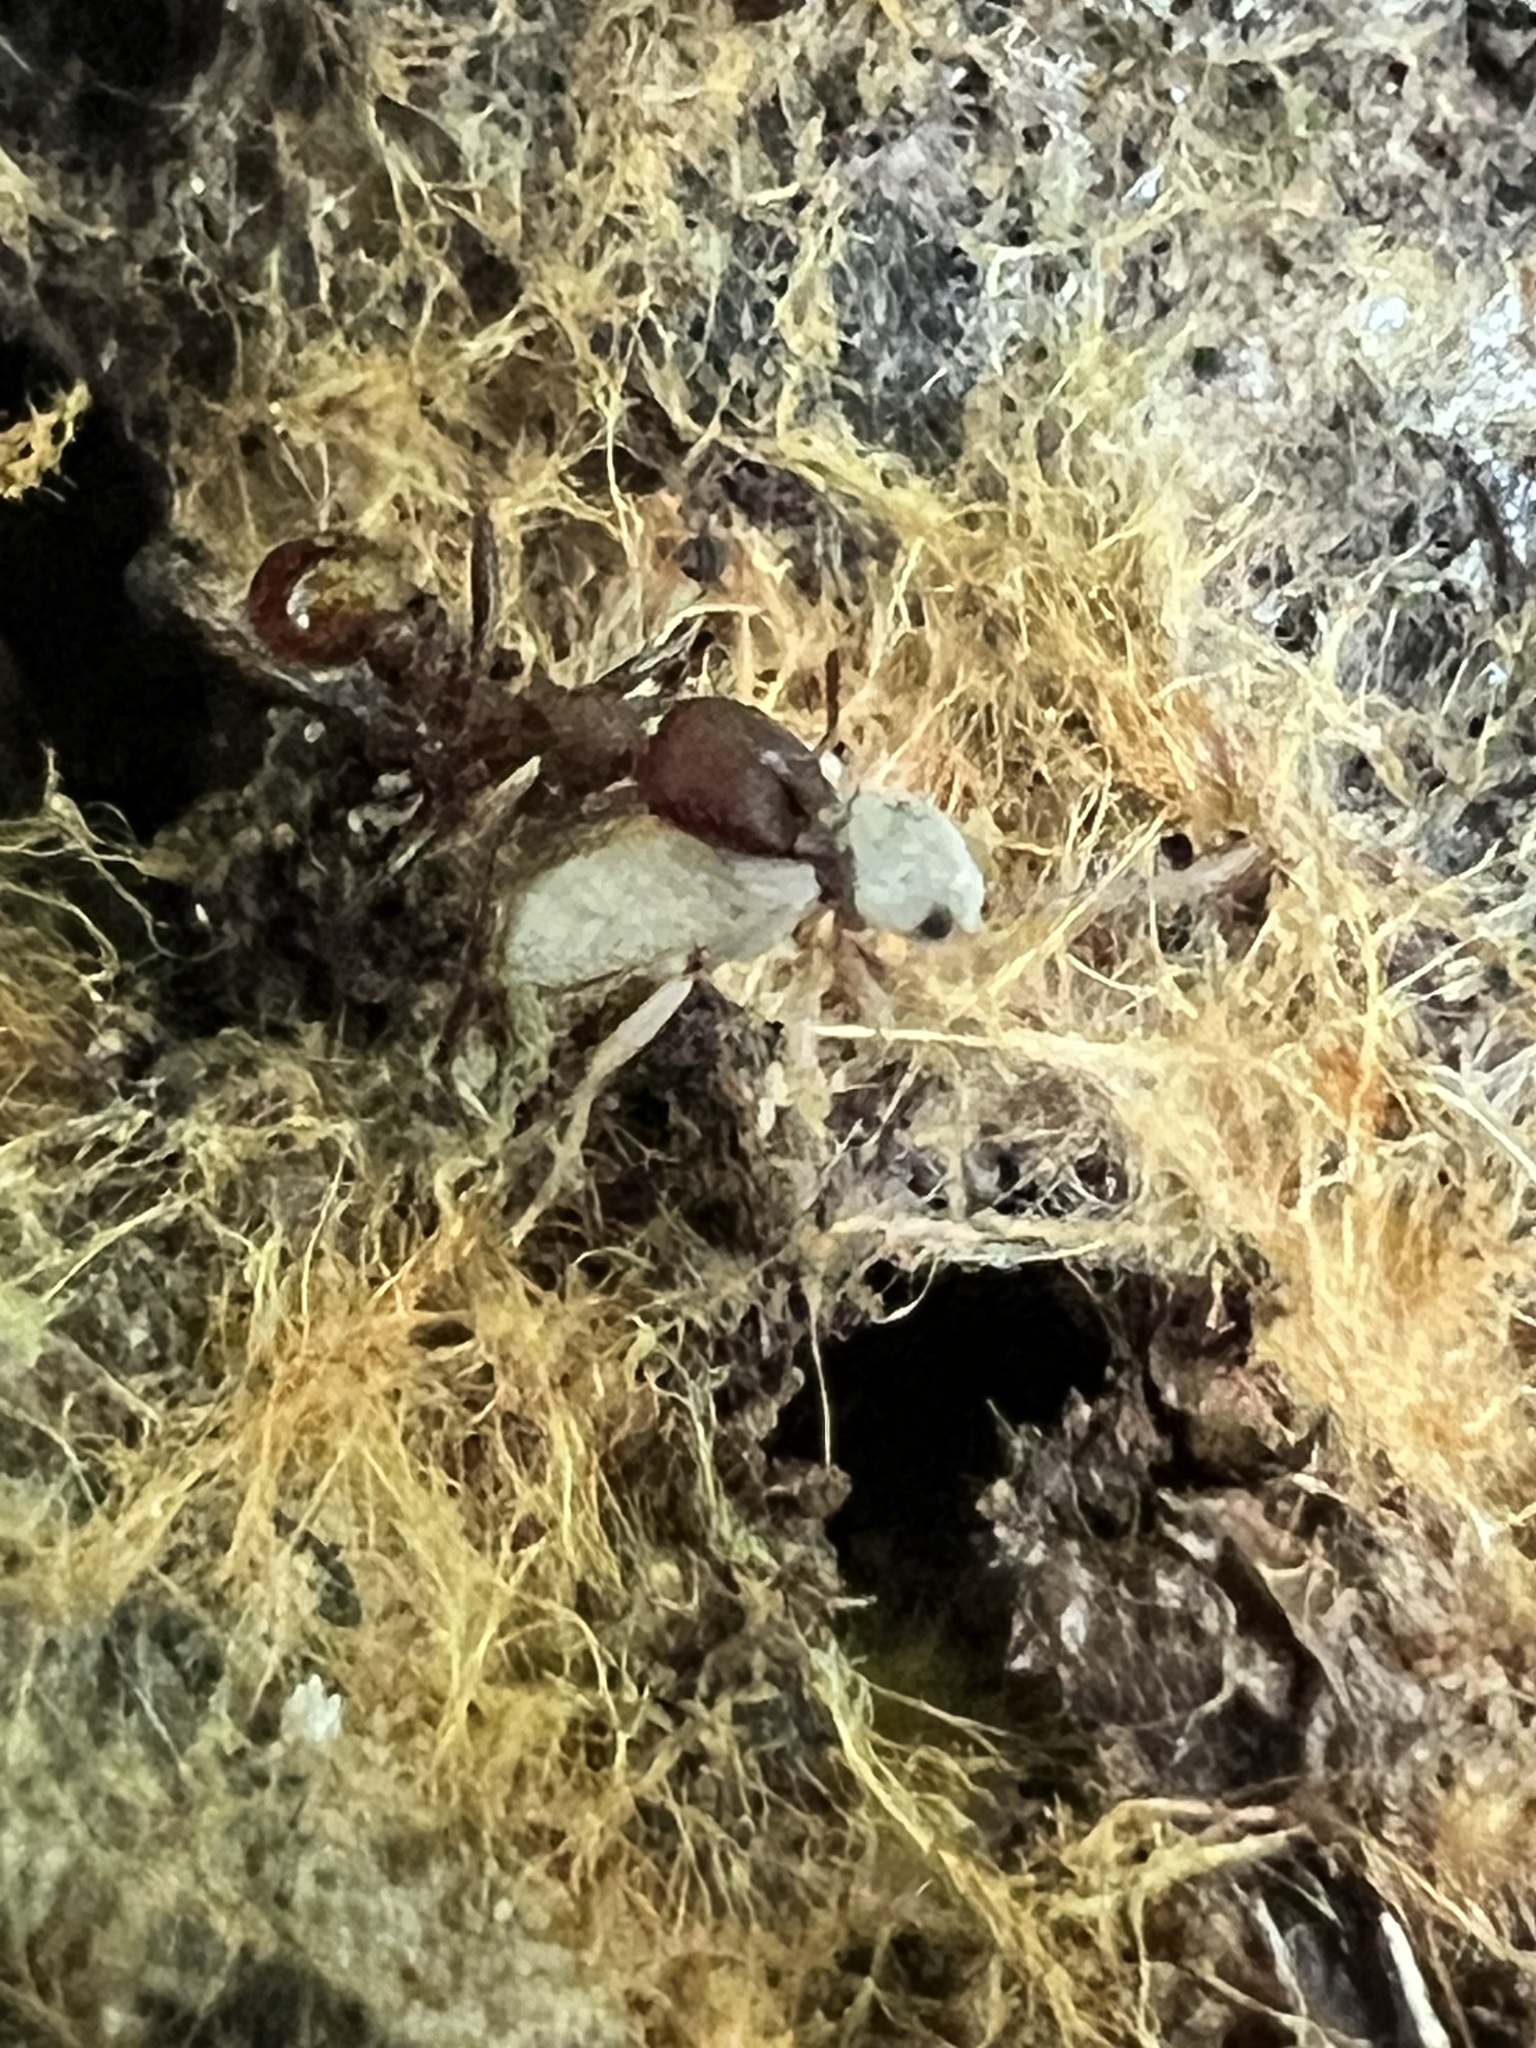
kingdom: Animalia
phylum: Arthropoda
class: Insecta
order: Hymenoptera
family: Formicidae
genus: Aphaenogaster
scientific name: Aphaenogaster tennesseensis
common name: Tennessee thread-waisted ant
